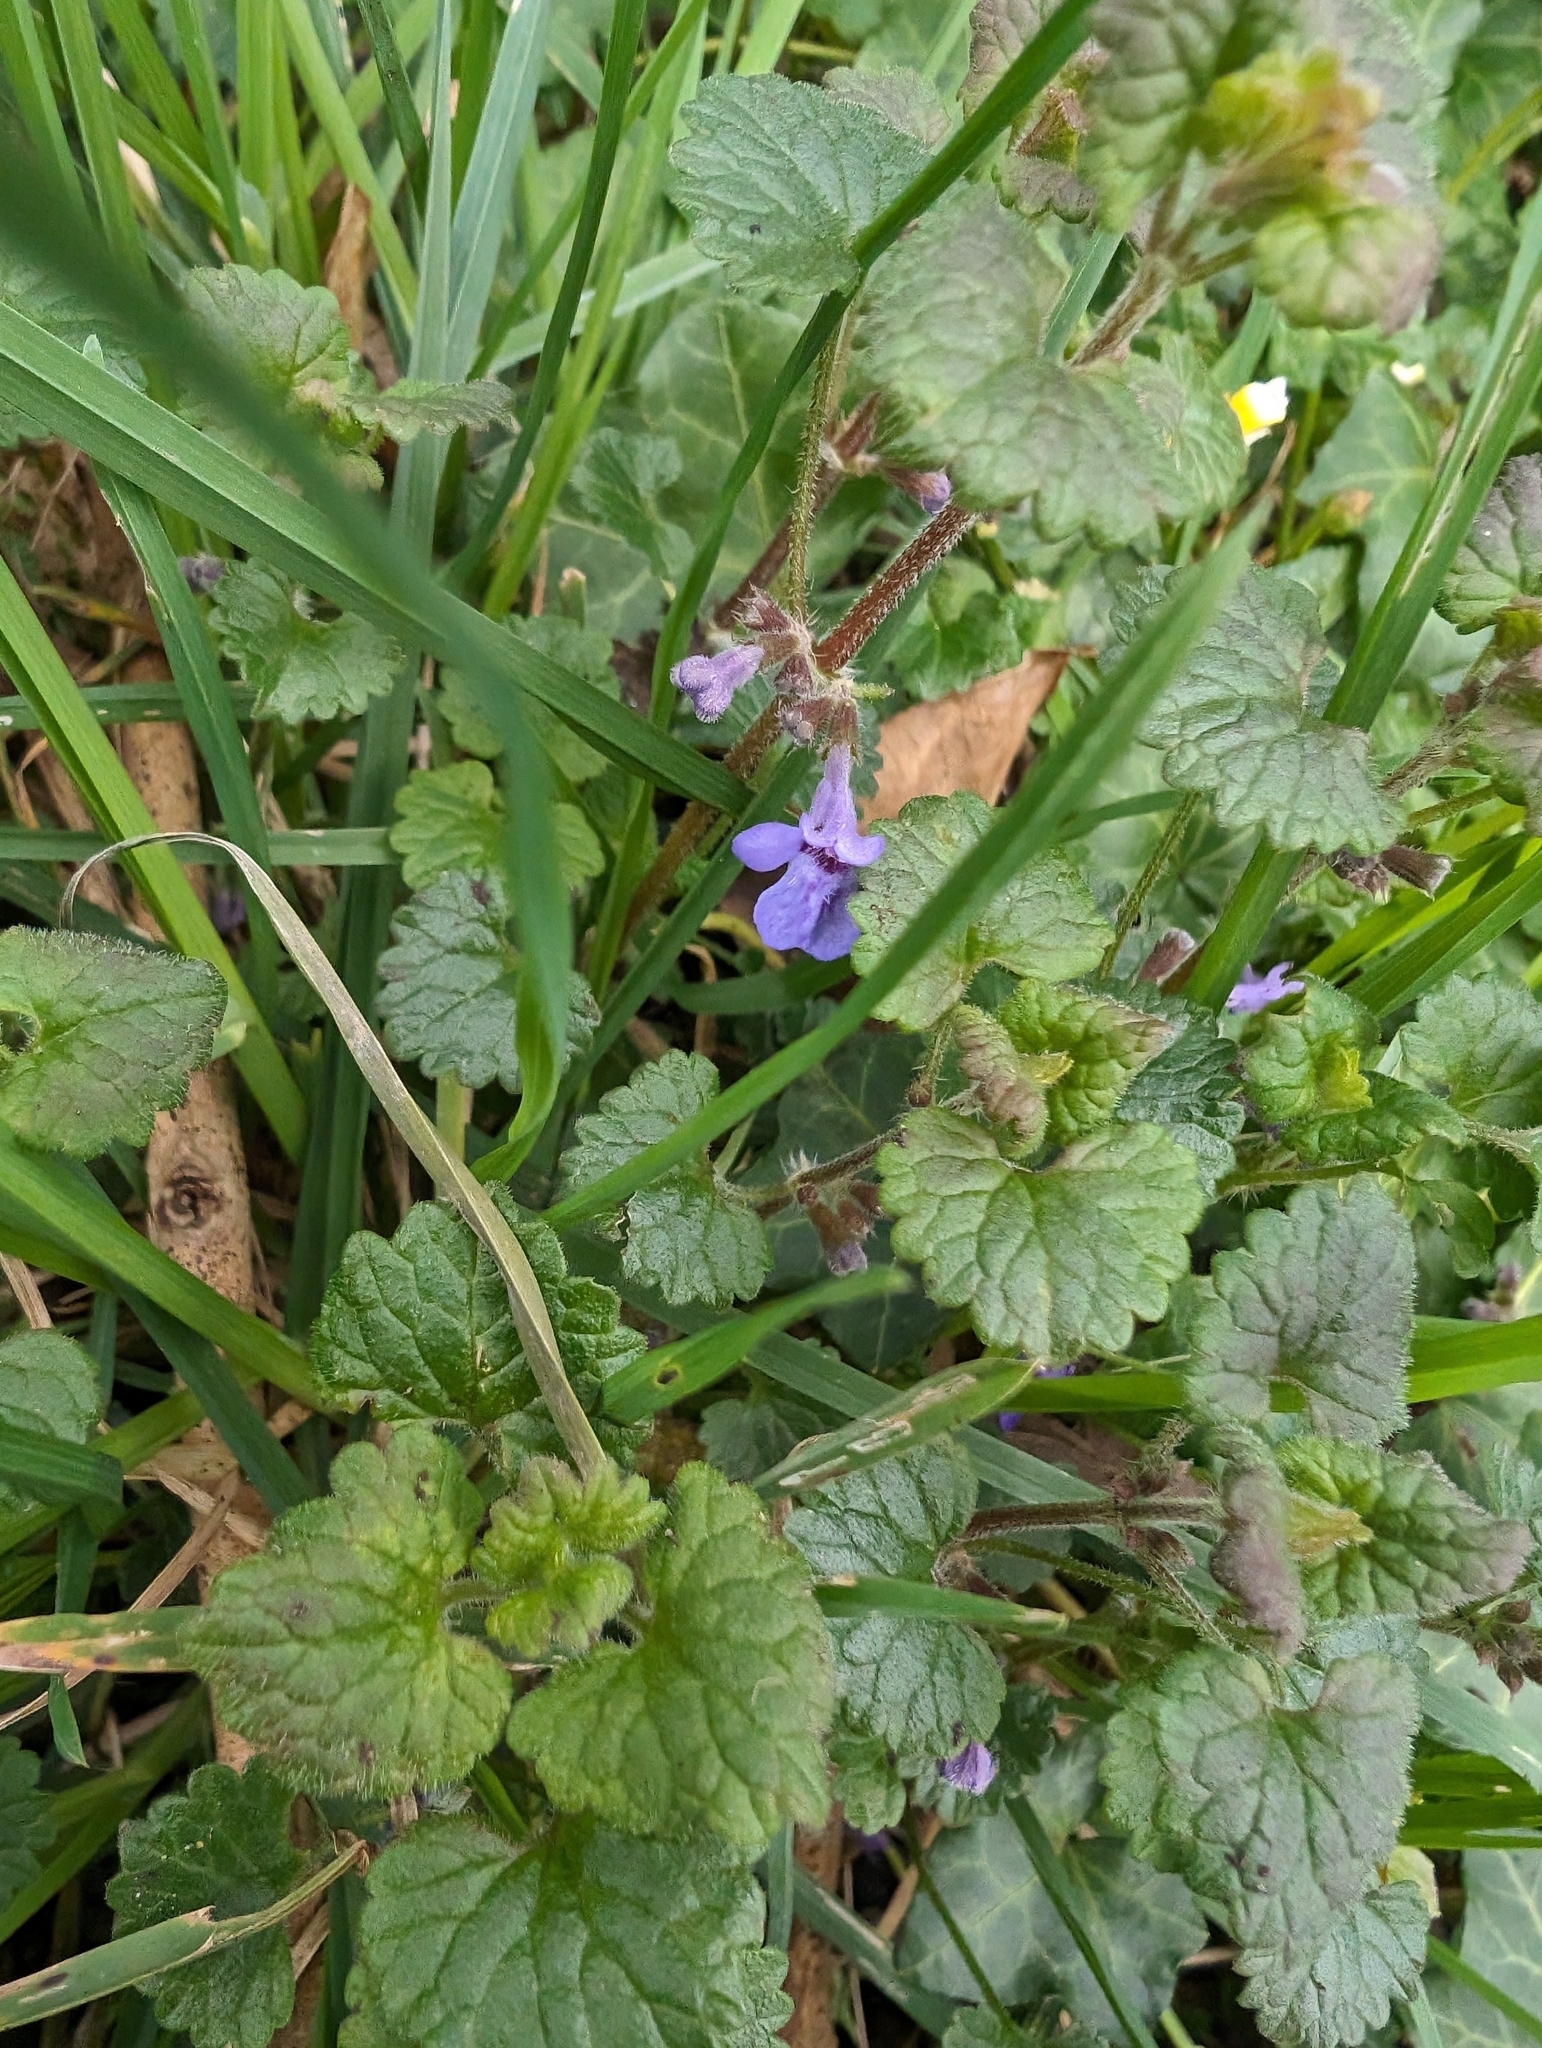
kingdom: Plantae
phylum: Tracheophyta
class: Magnoliopsida
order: Lamiales
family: Lamiaceae
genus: Glechoma
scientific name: Glechoma hederacea
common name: Ground ivy
